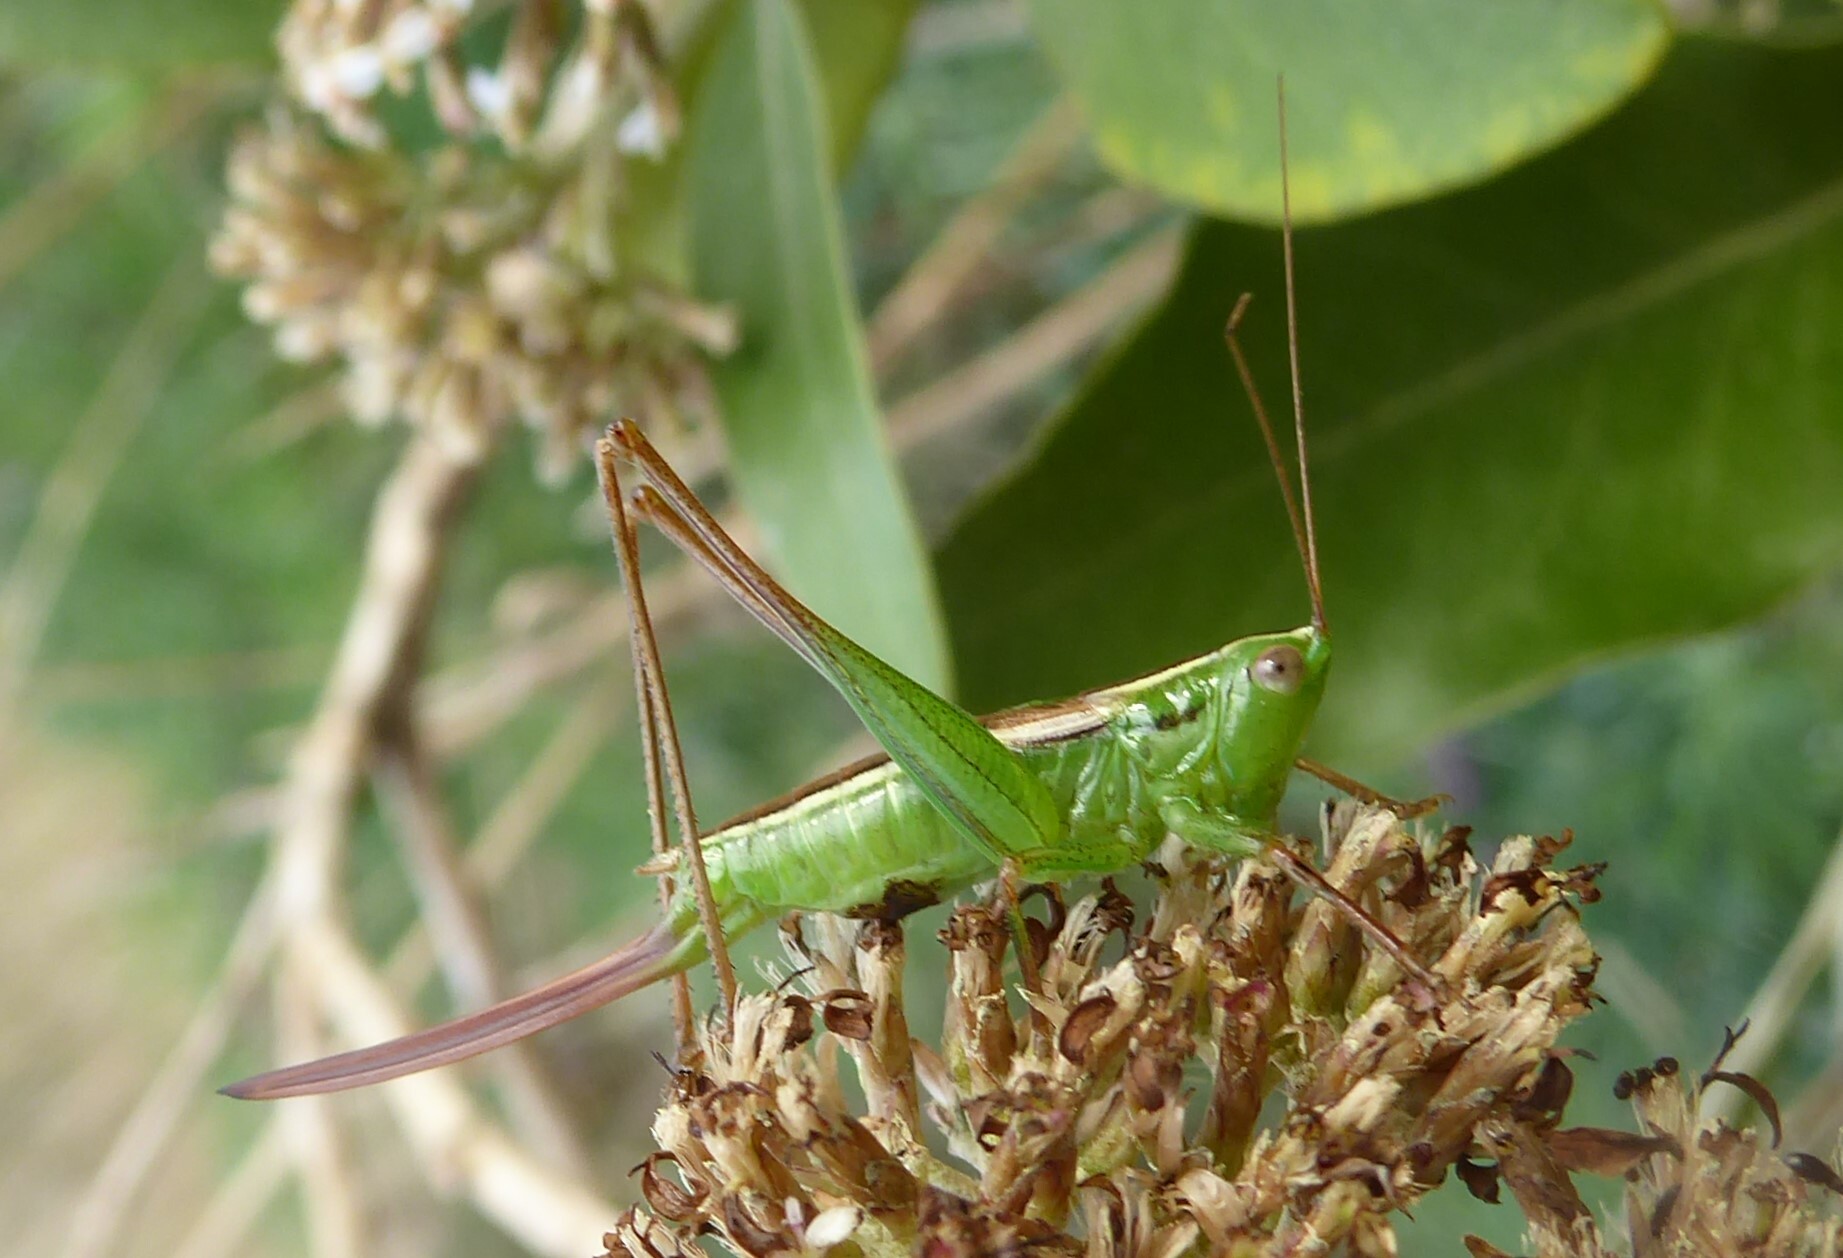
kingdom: Animalia
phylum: Arthropoda
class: Insecta
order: Orthoptera
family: Tettigoniidae
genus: Conocephalus
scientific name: Conocephalus bilineatus
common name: Small meadow katydid
